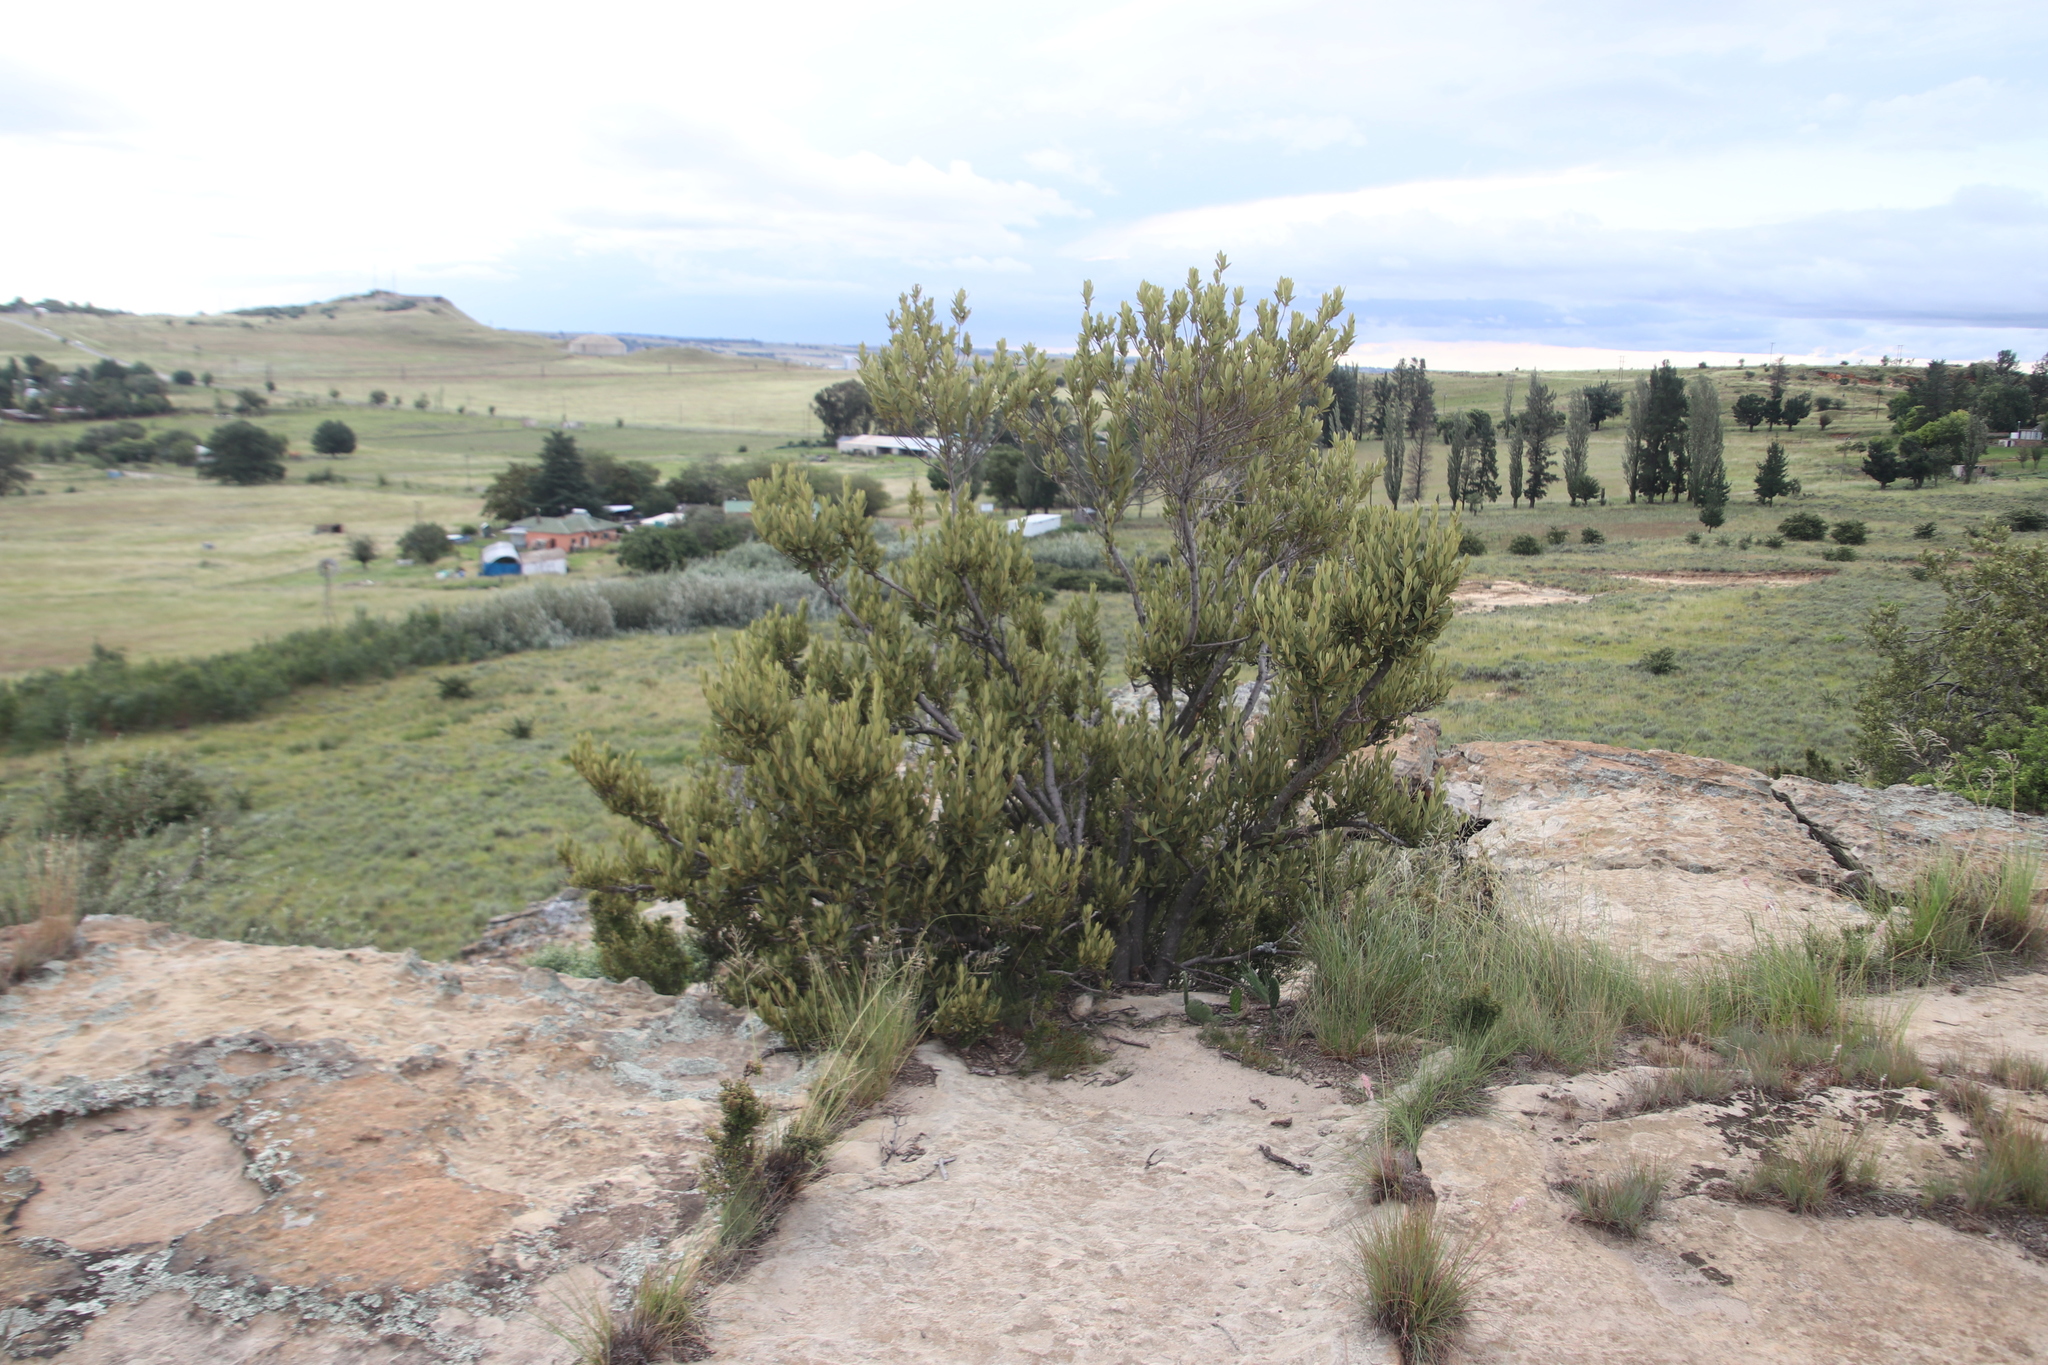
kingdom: Plantae
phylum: Tracheophyta
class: Magnoliopsida
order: Malpighiales
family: Achariaceae
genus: Kiggelaria
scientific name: Kiggelaria africana
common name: Wild peach
